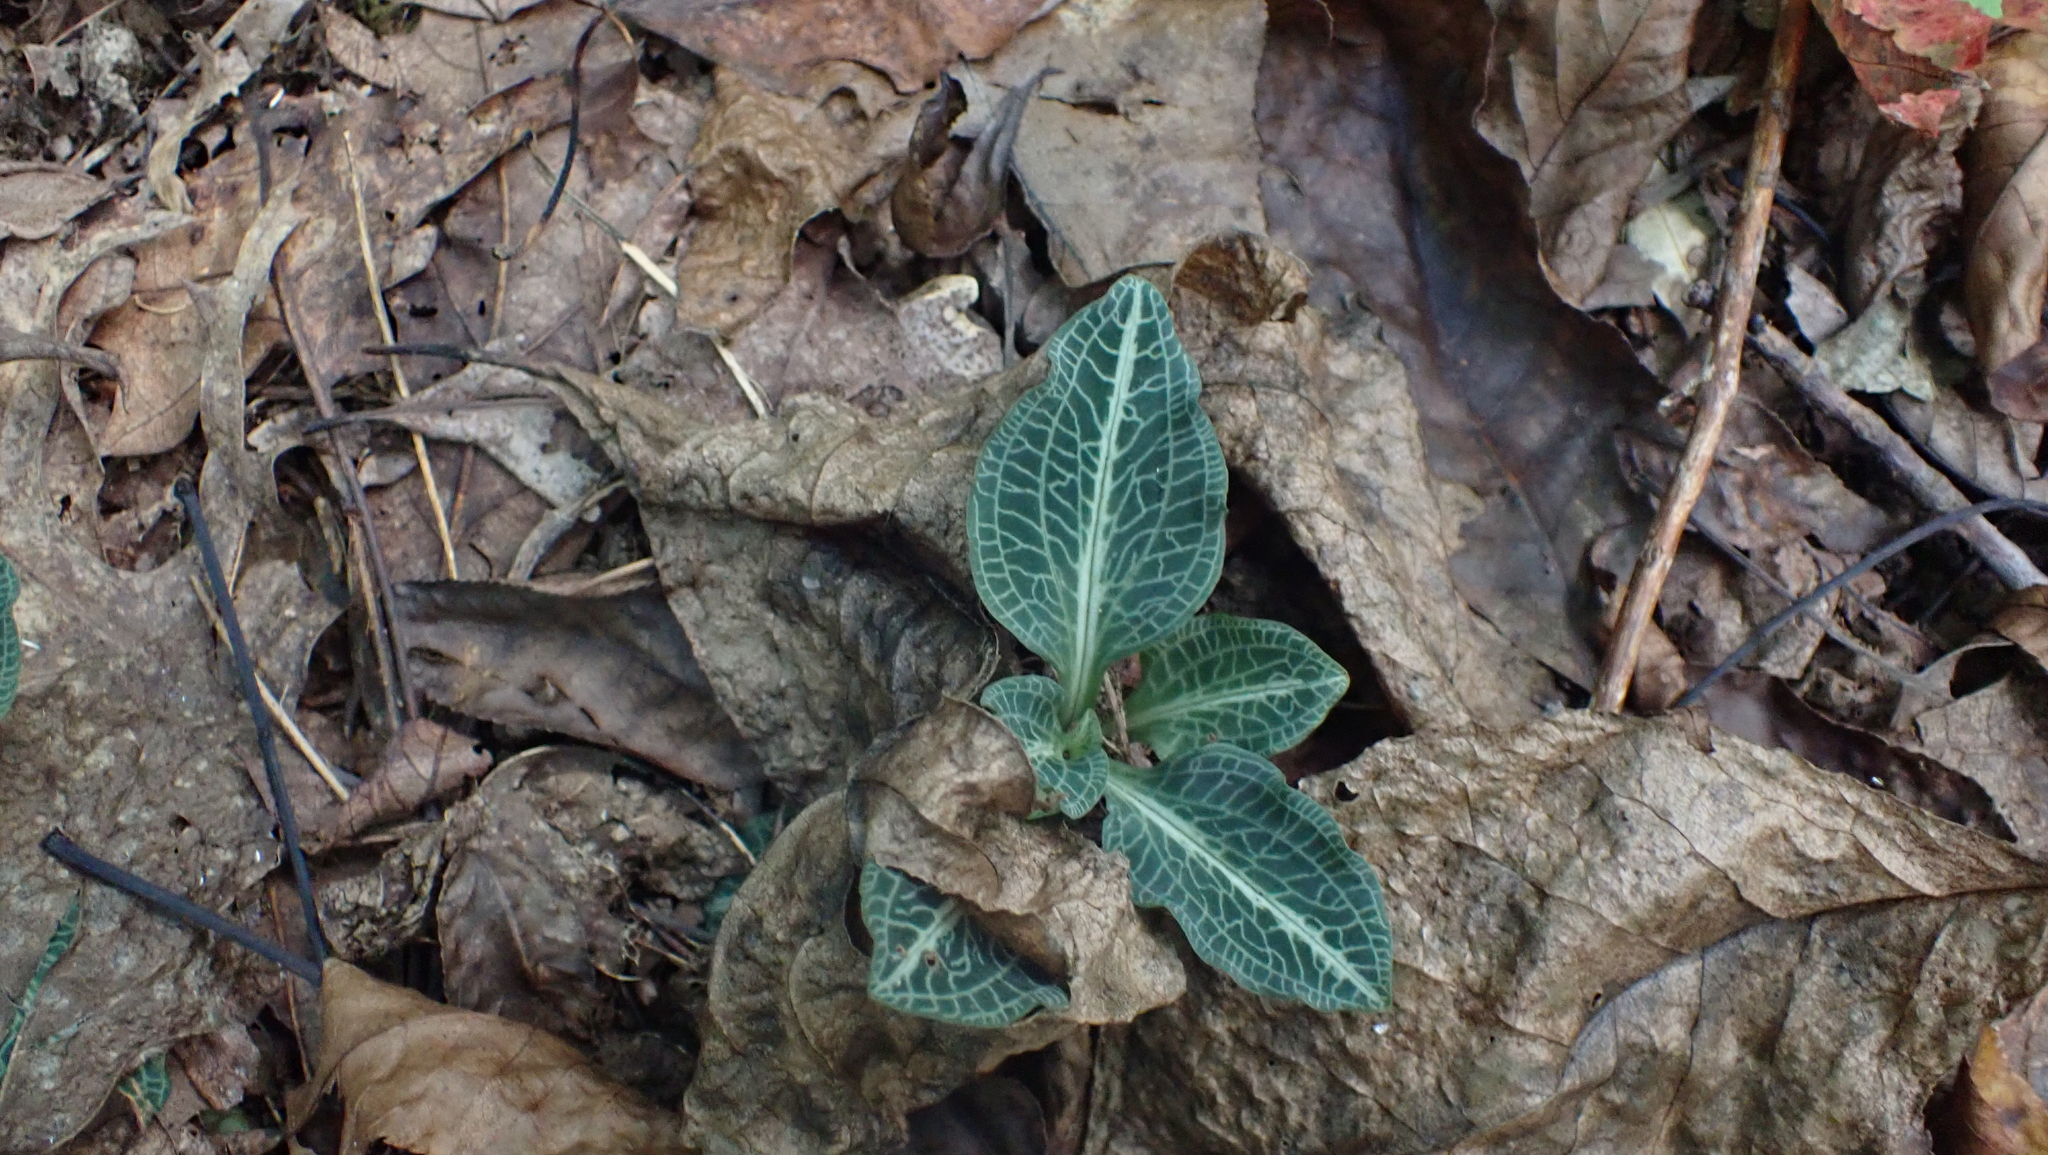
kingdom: Plantae
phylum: Tracheophyta
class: Liliopsida
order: Asparagales
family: Orchidaceae
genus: Goodyera
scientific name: Goodyera pubescens
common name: Downy rattlesnake-plantain
